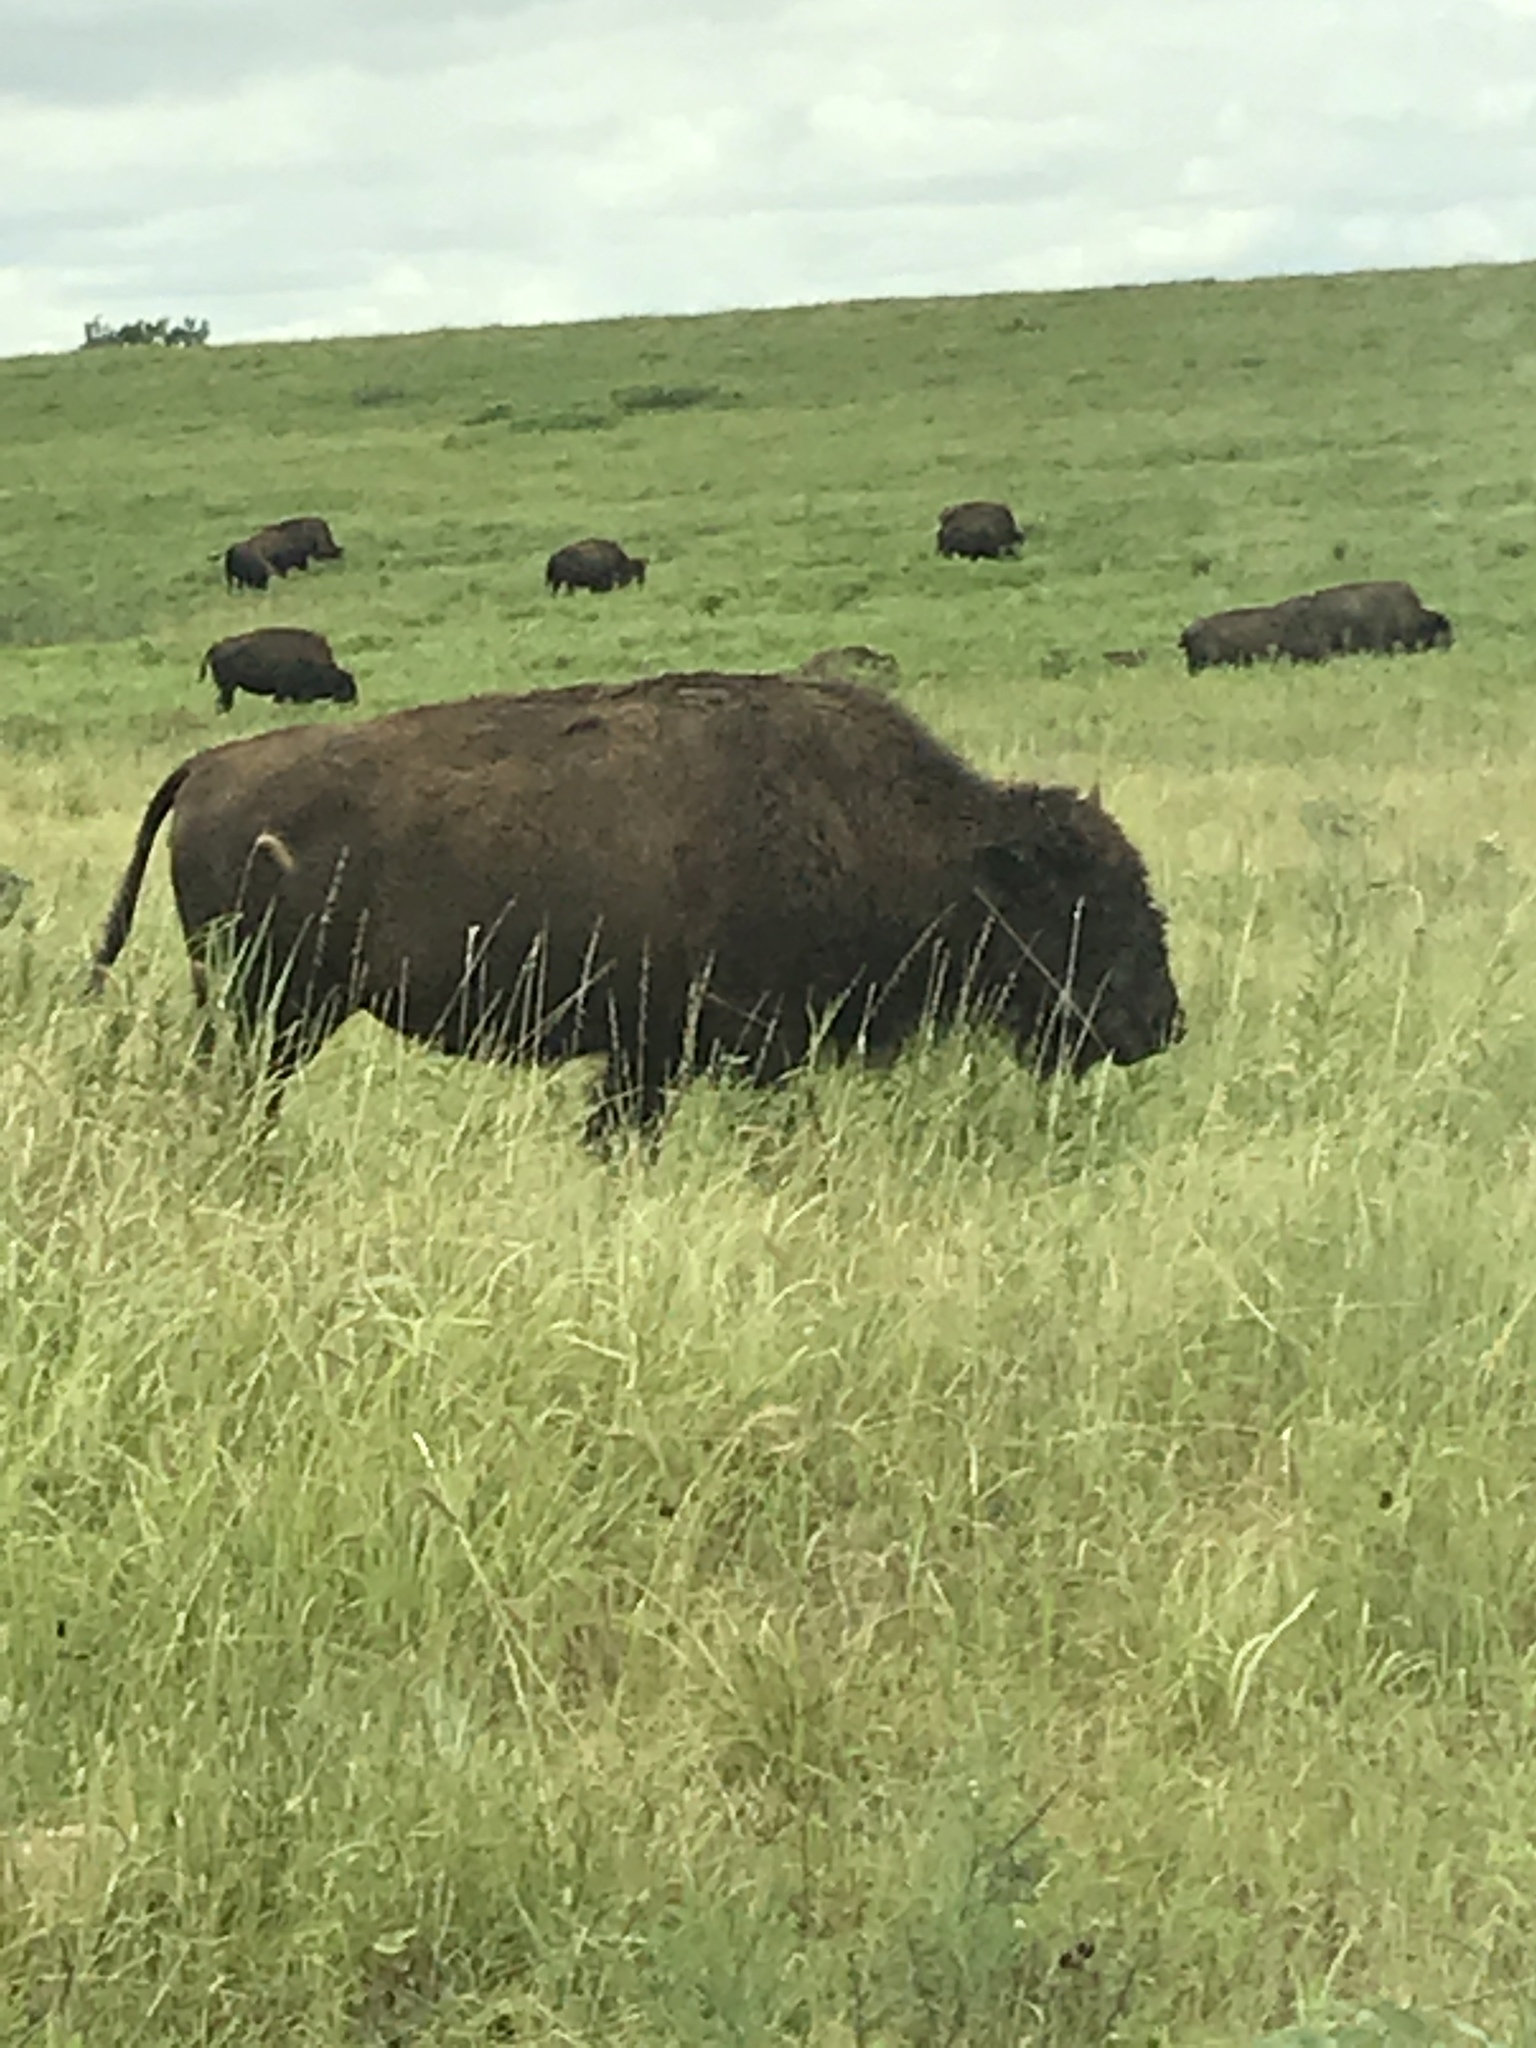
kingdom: Animalia
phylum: Chordata
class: Mammalia
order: Artiodactyla
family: Bovidae
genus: Bison
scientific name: Bison bison
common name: American bison
